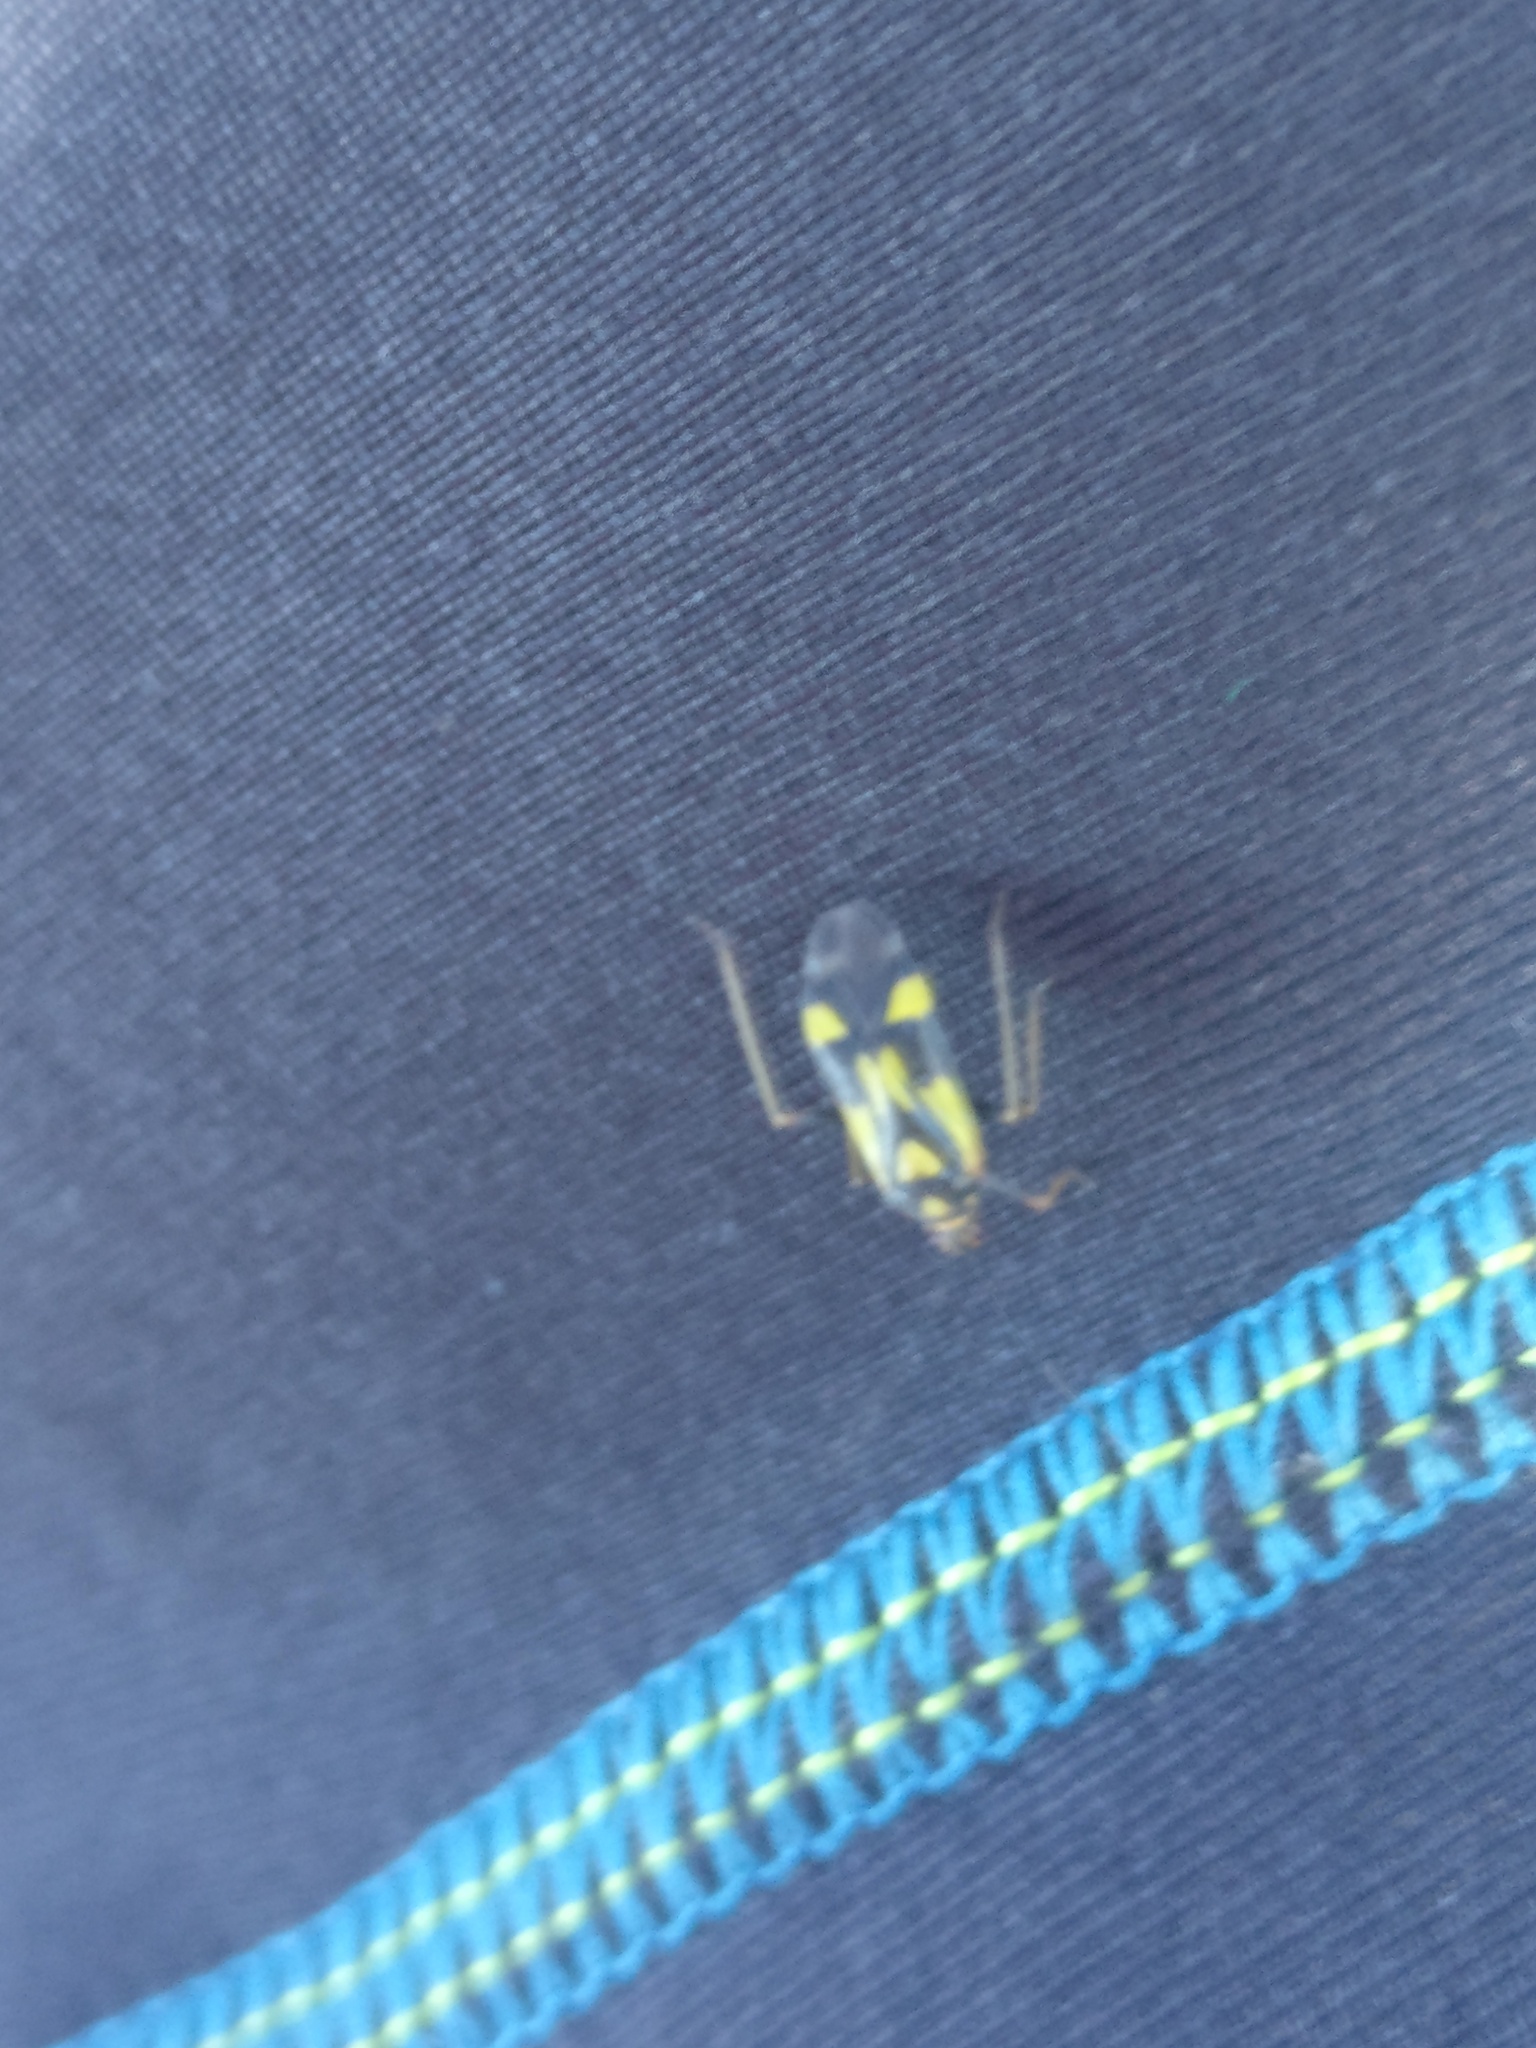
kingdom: Animalia
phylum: Arthropoda
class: Insecta
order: Hemiptera
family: Miridae
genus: Grypocoris
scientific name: Grypocoris sexguttatus
